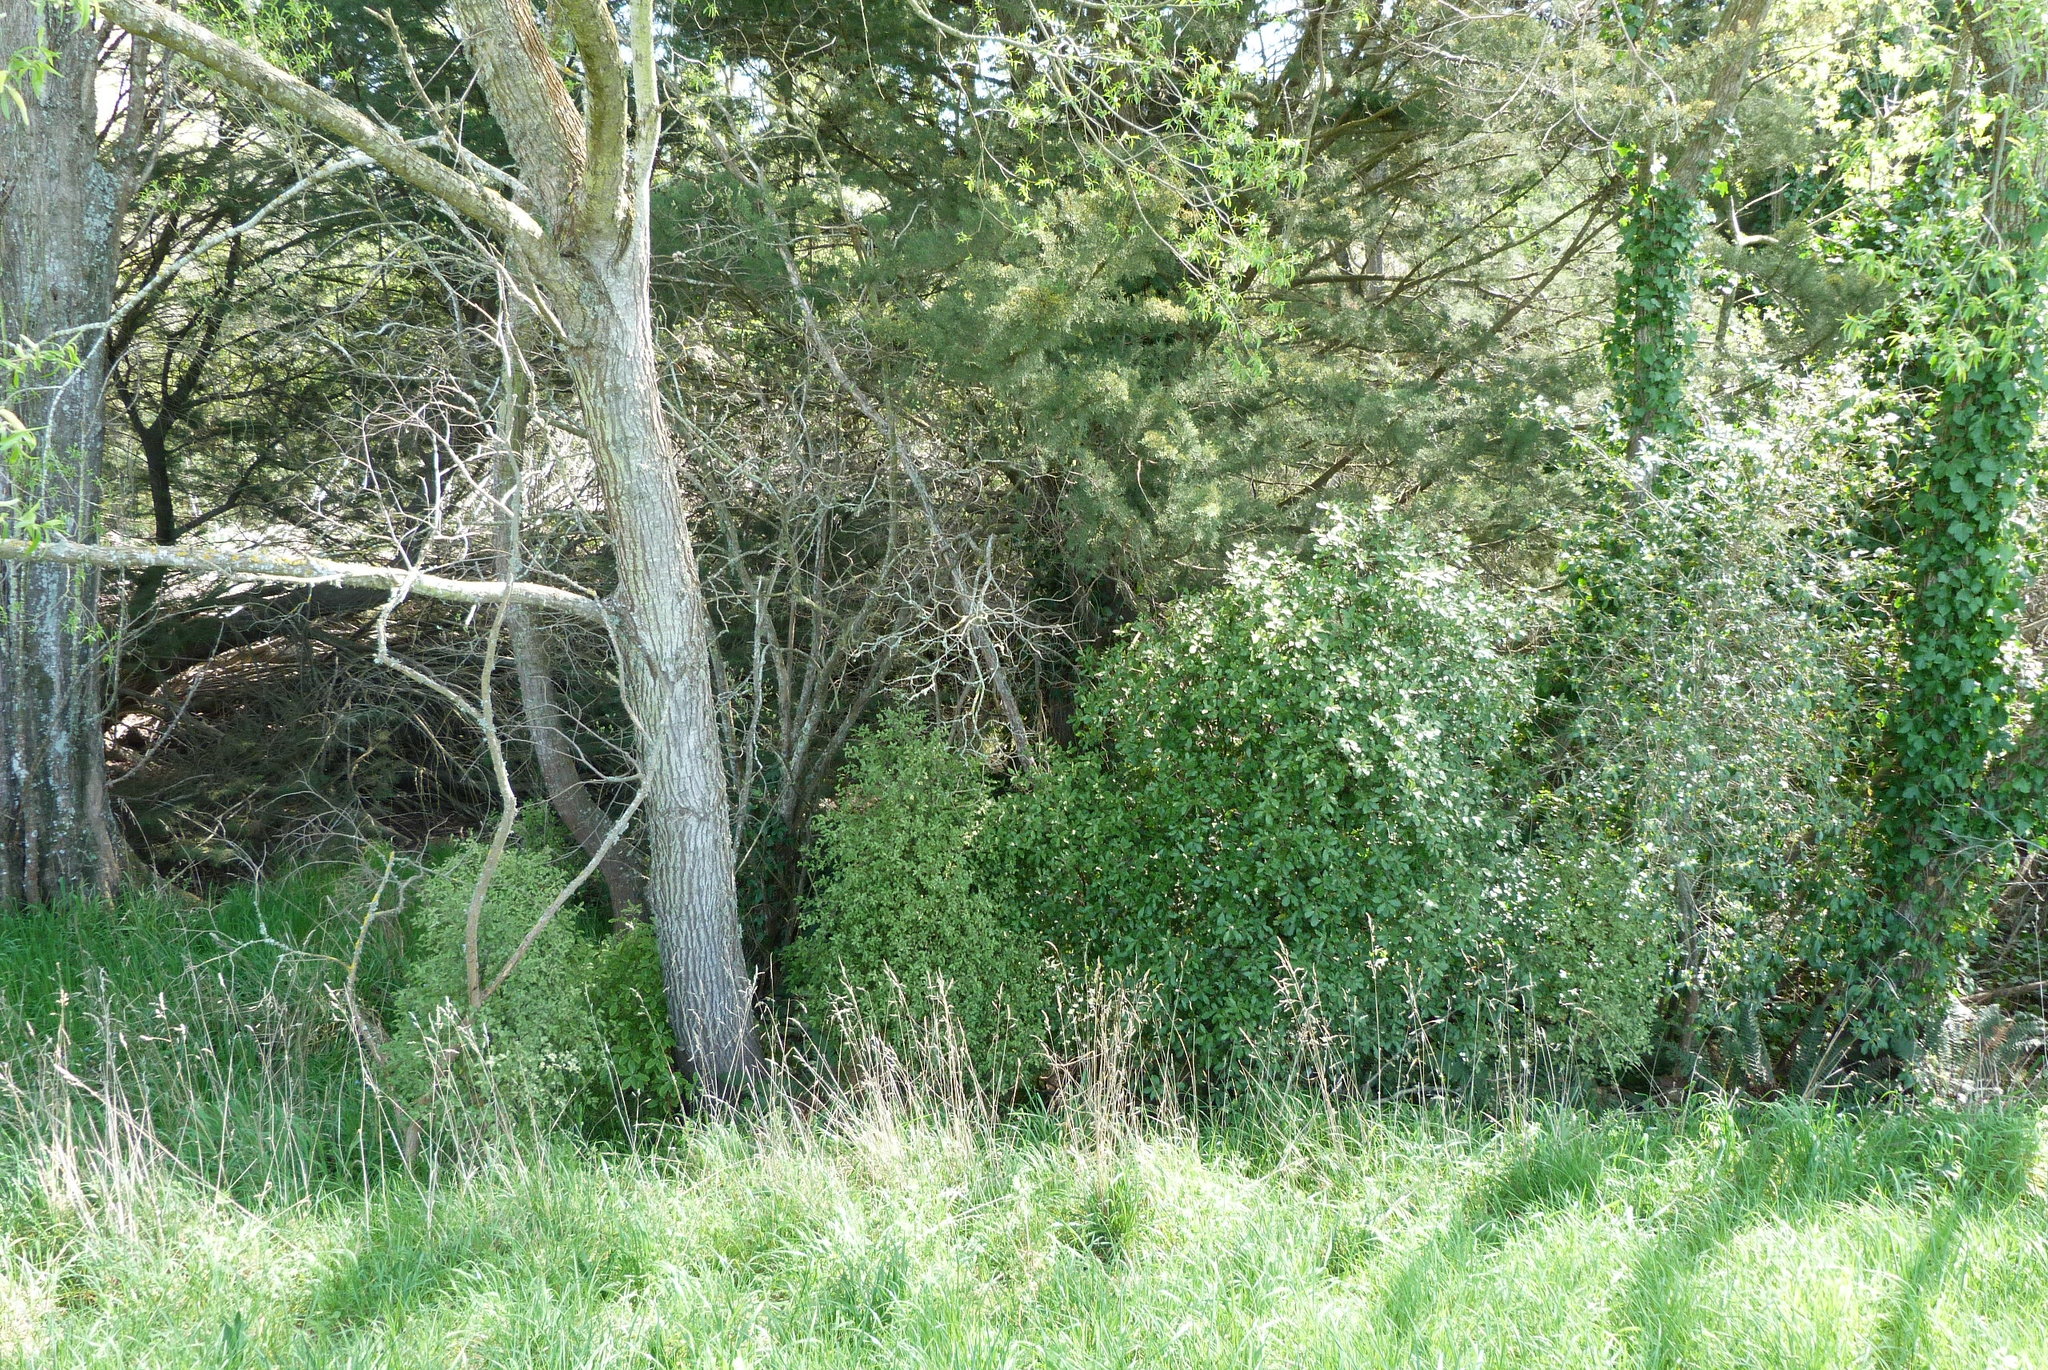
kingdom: Plantae
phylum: Tracheophyta
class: Magnoliopsida
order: Apiales
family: Pittosporaceae
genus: Pittosporum
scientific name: Pittosporum tenuifolium
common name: Kohuhu
